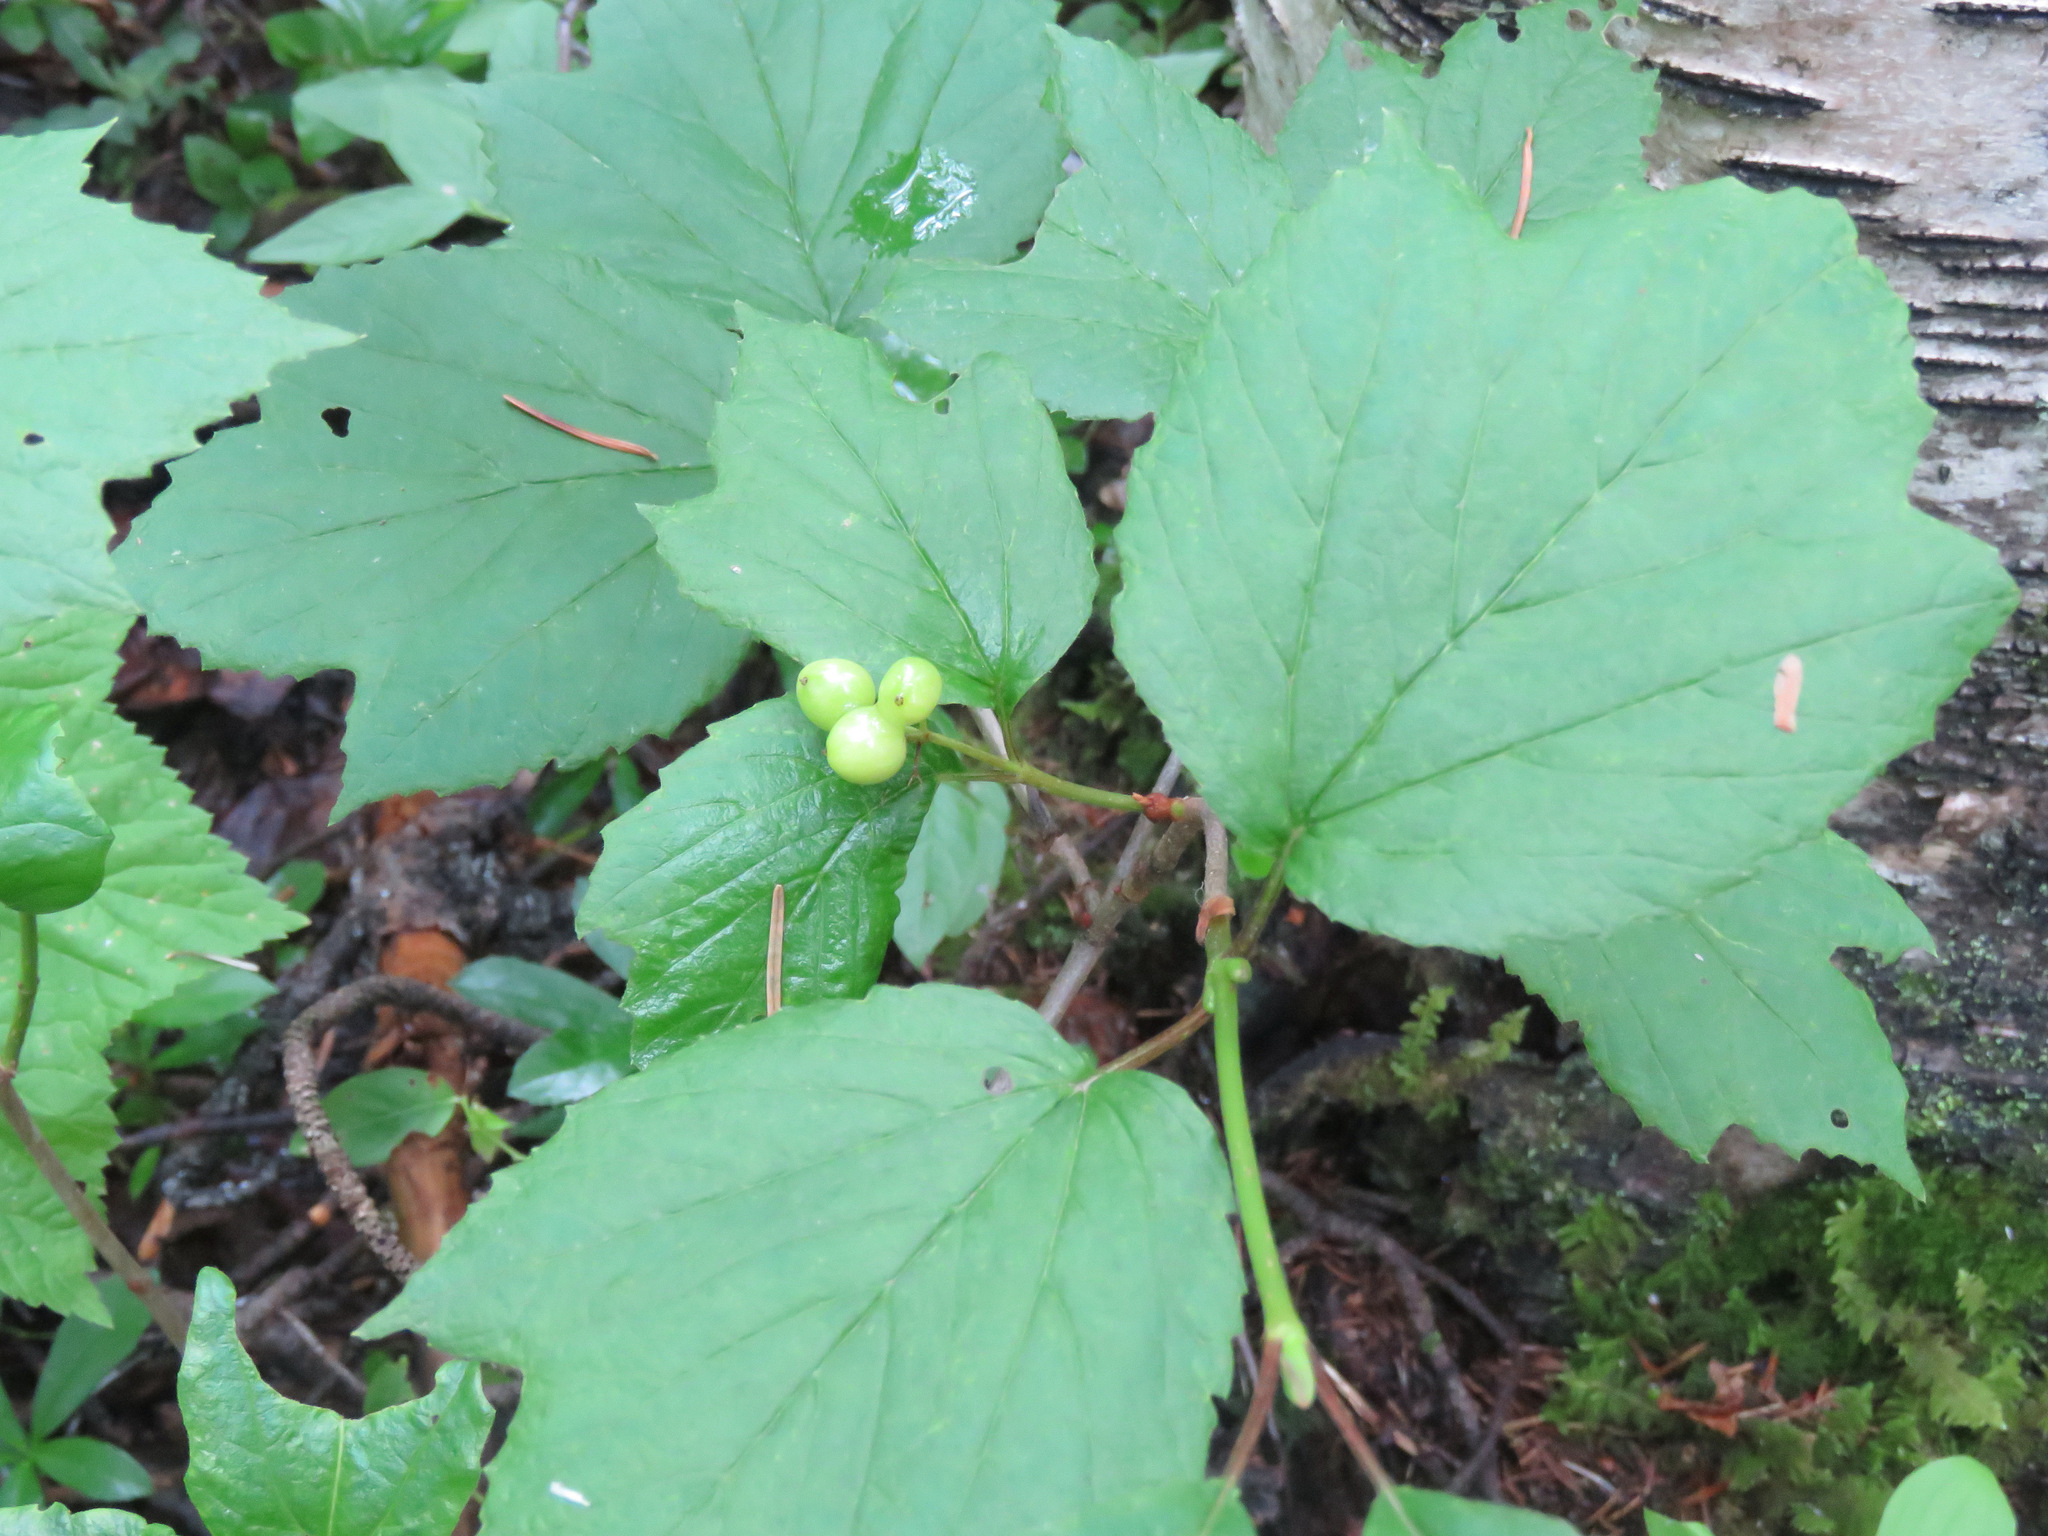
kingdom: Plantae
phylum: Tracheophyta
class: Magnoliopsida
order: Dipsacales
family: Viburnaceae
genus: Viburnum
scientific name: Viburnum edule
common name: Mooseberry
